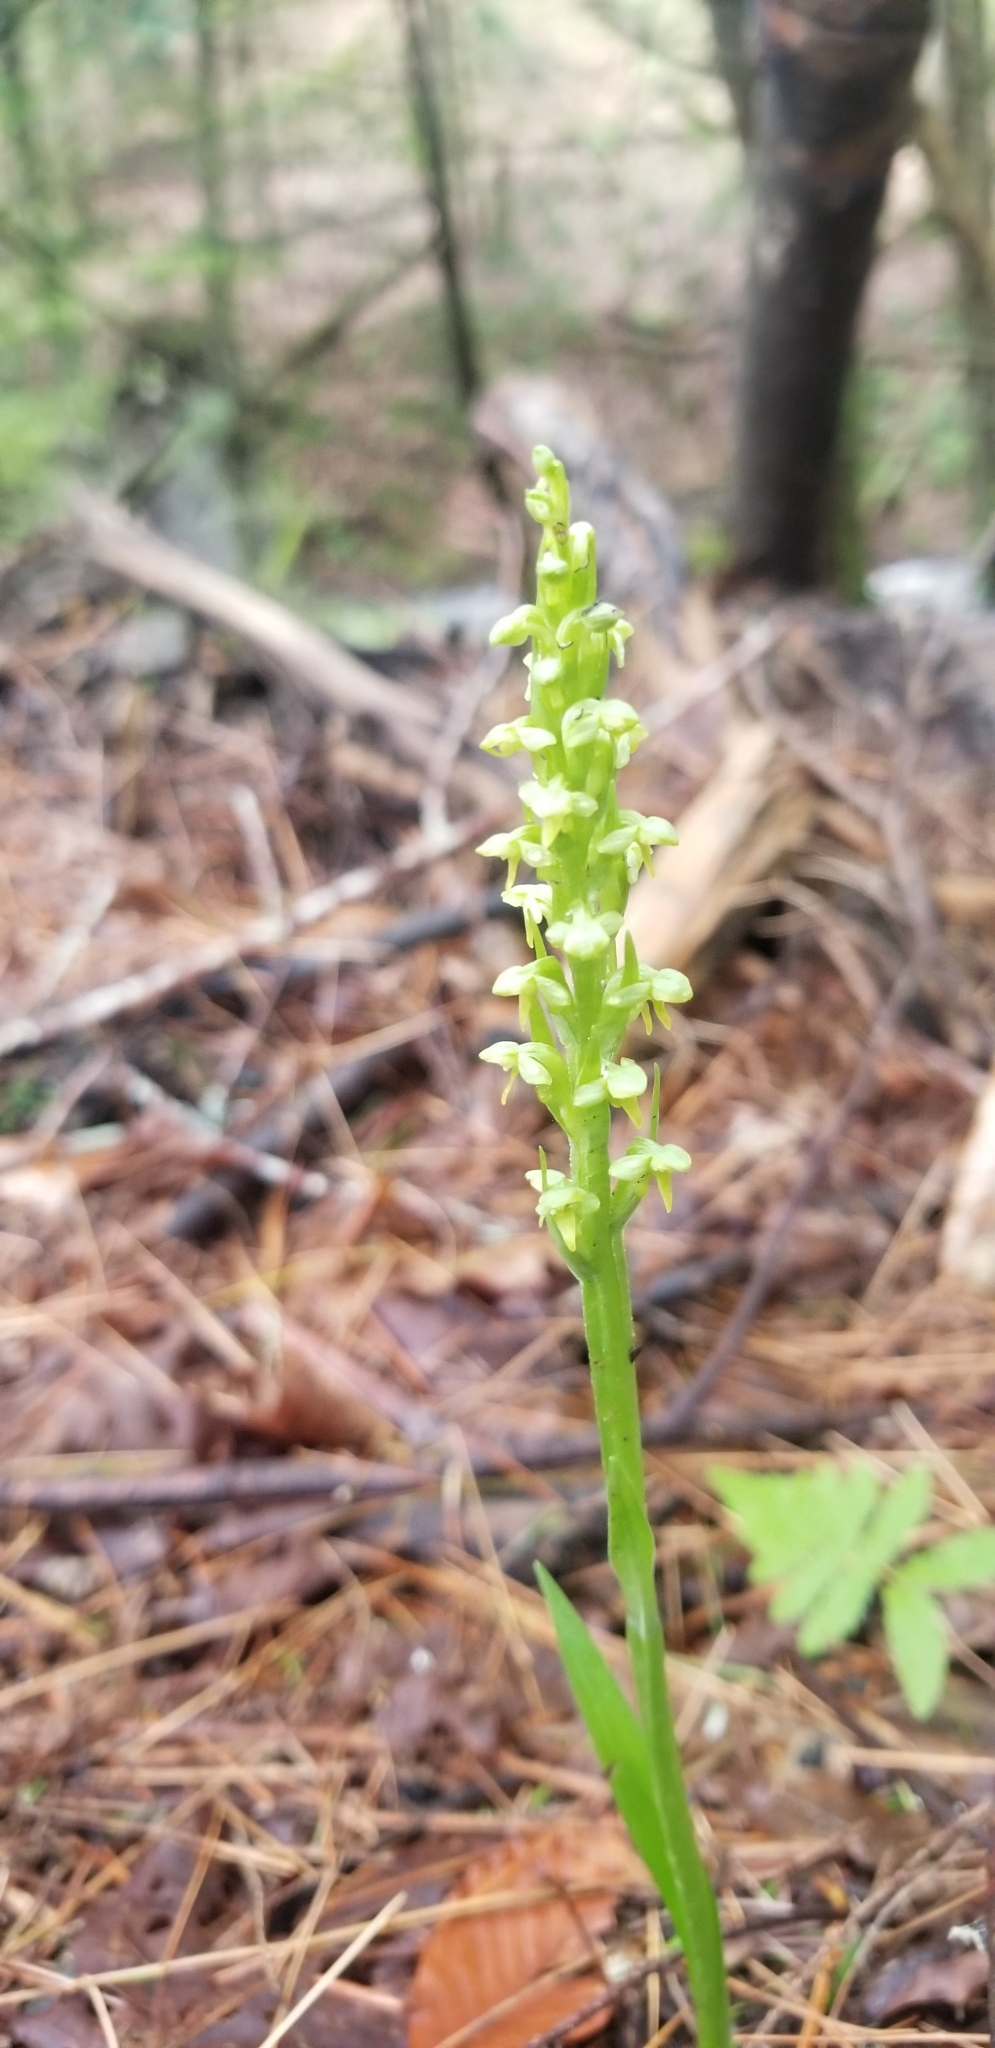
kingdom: Plantae
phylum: Tracheophyta
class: Liliopsida
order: Asparagales
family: Orchidaceae
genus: Platanthera
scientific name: Platanthera aquilonis
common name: Northern green orchid
